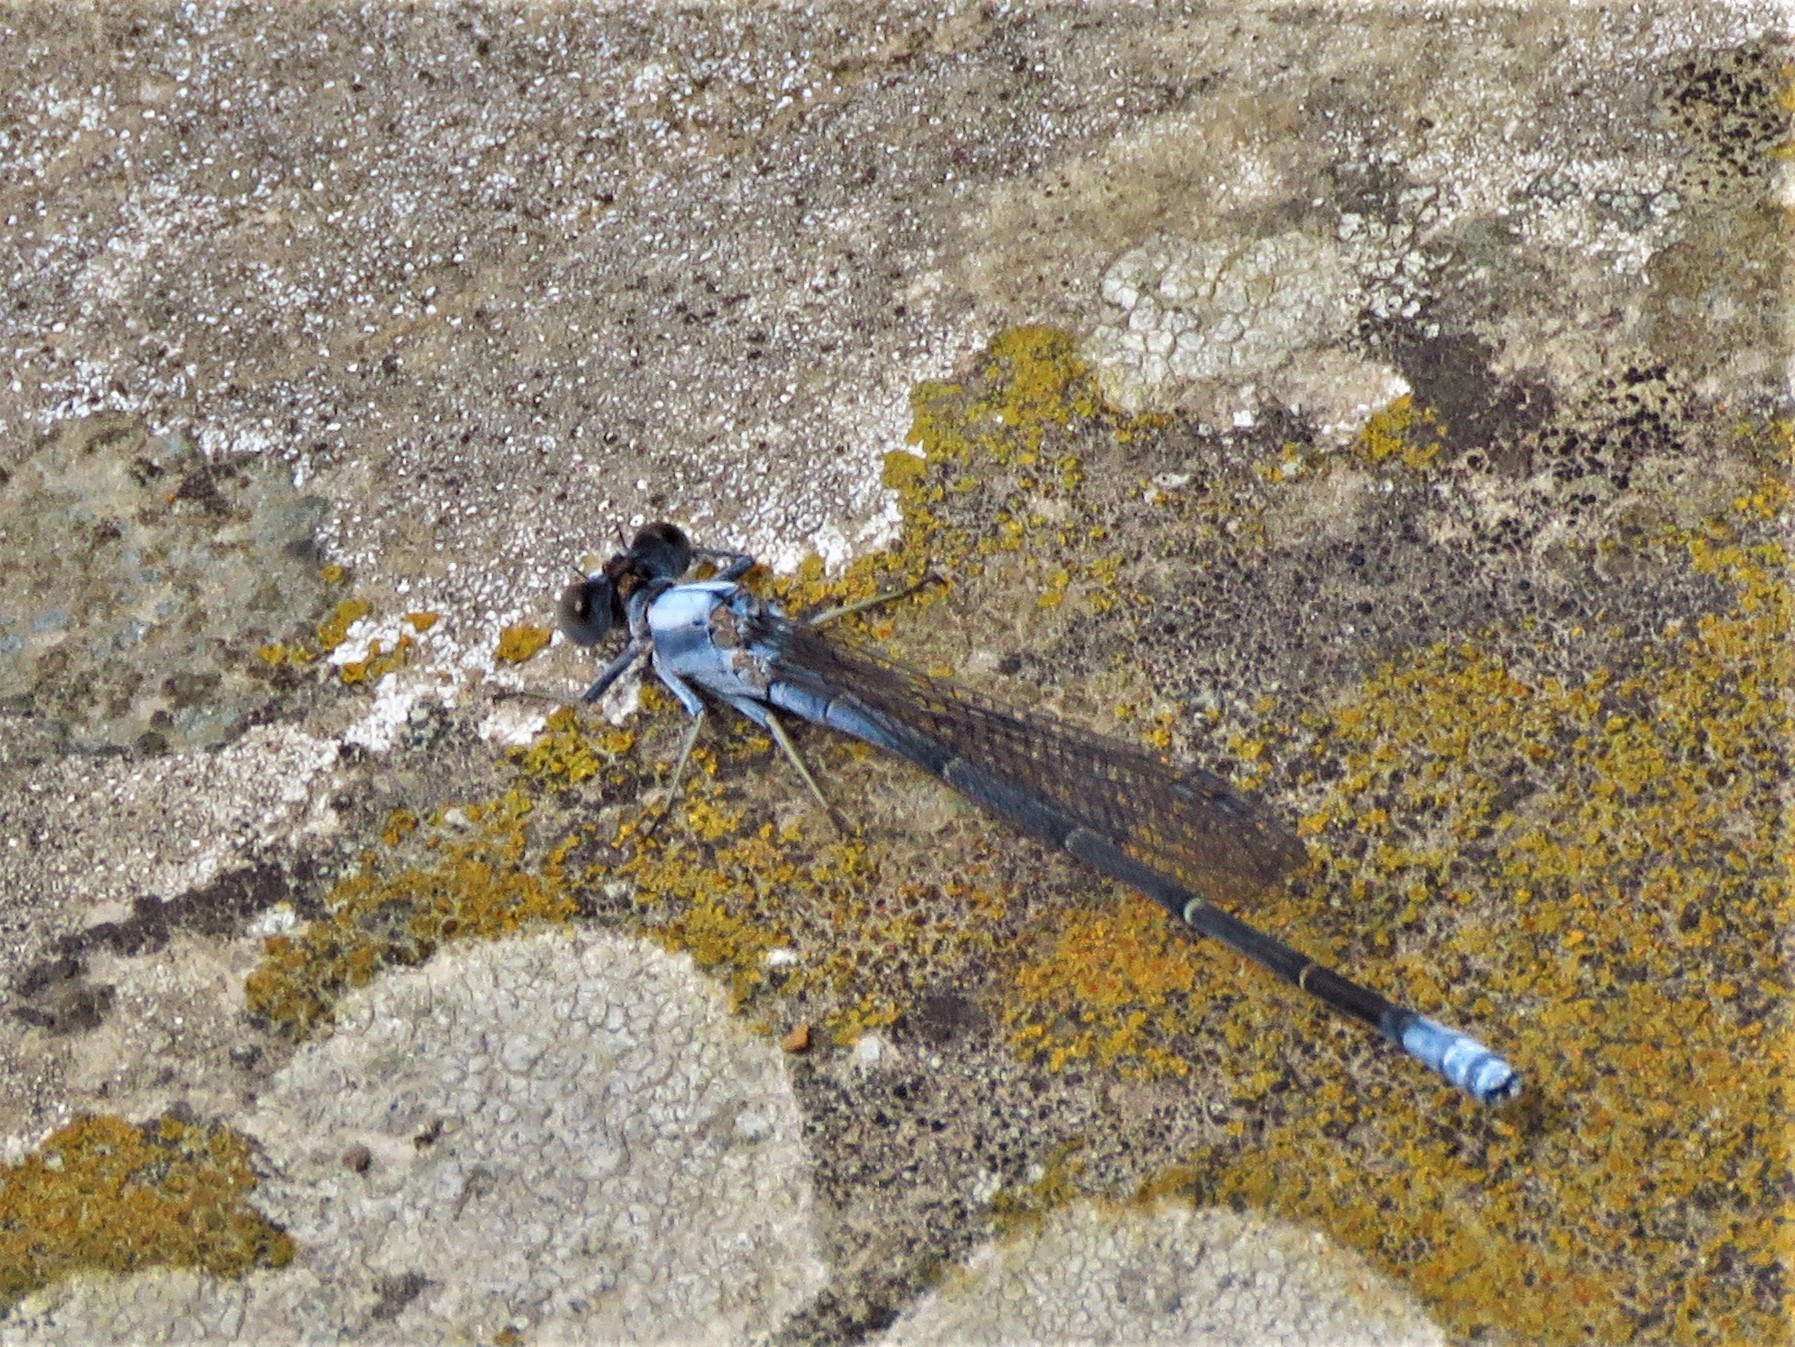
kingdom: Animalia
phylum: Arthropoda
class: Insecta
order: Odonata
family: Coenagrionidae
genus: Argia
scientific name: Argia moesta
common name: Powdered dancer
